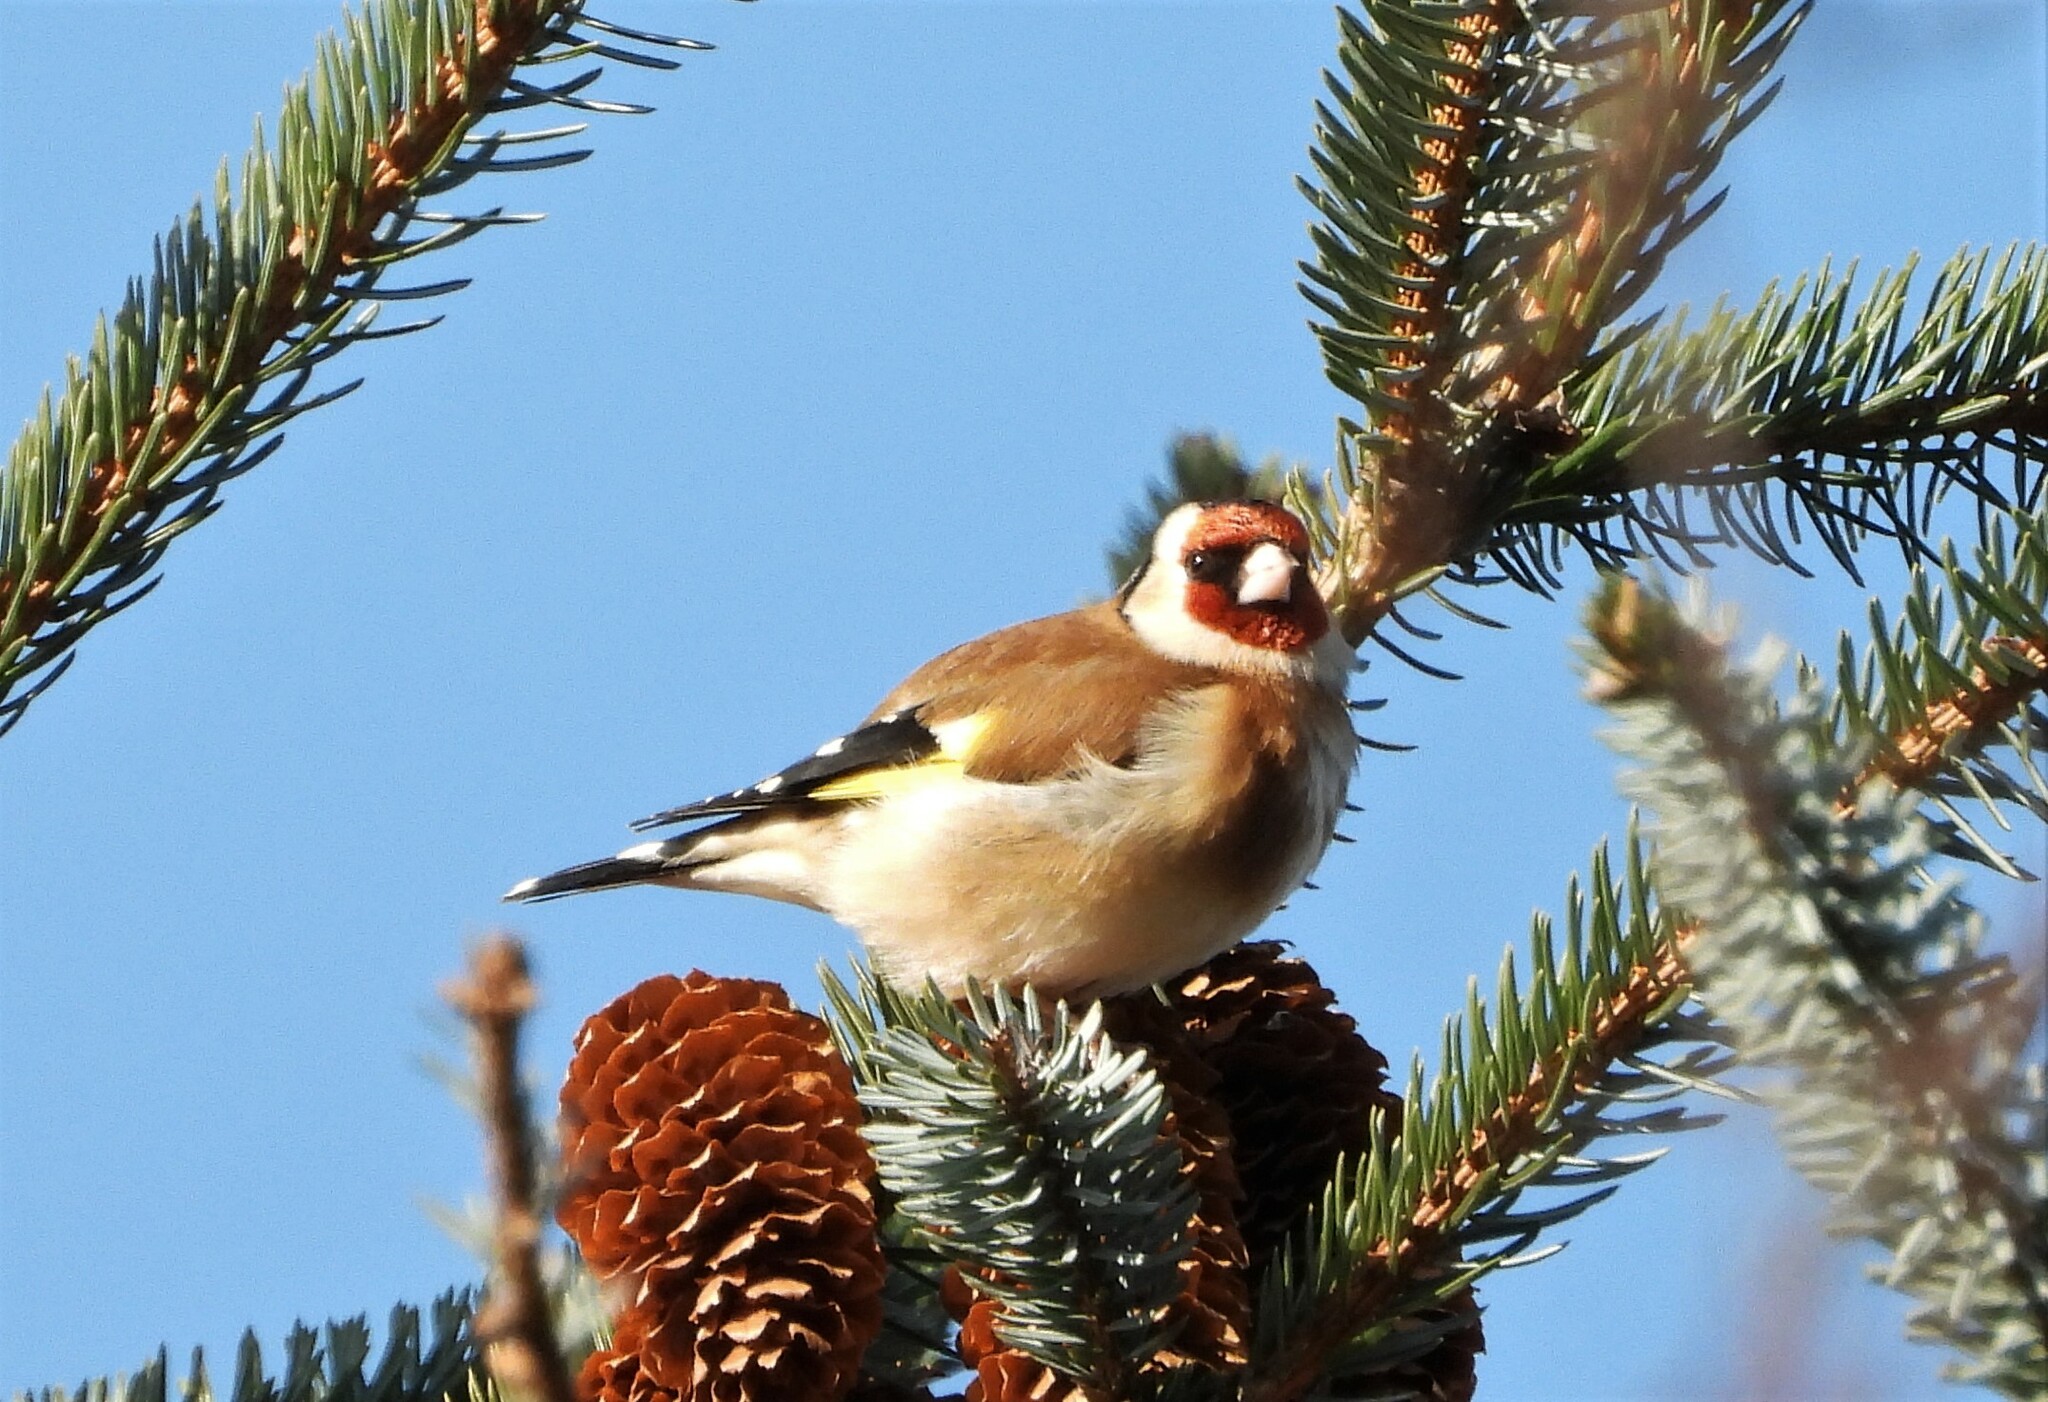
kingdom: Animalia
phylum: Chordata
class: Aves
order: Passeriformes
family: Fringillidae
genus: Carduelis
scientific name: Carduelis carduelis
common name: European goldfinch
